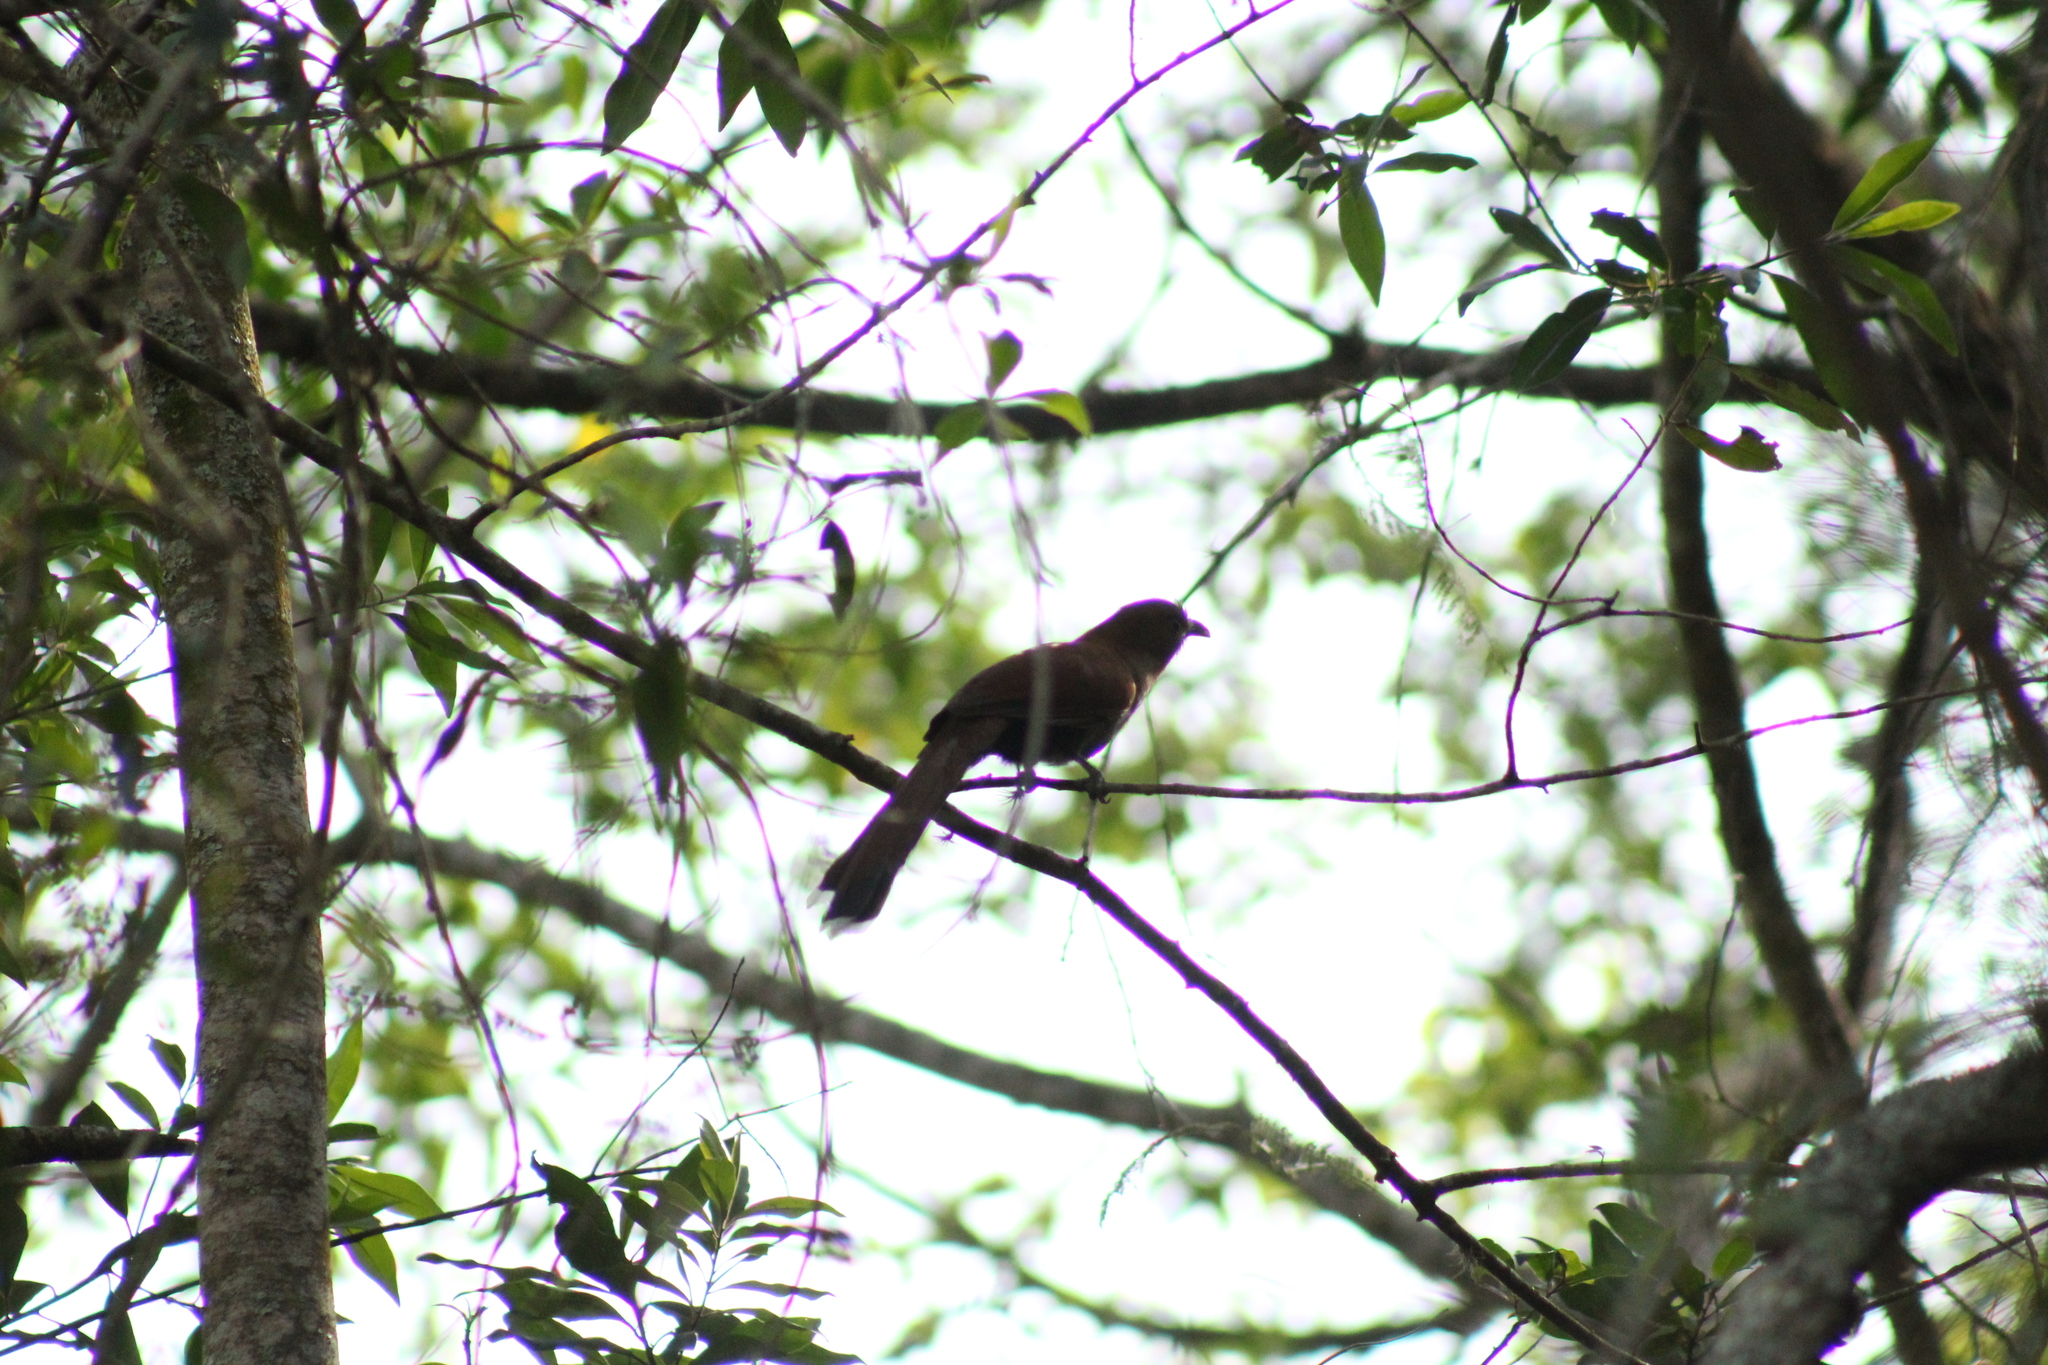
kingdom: Animalia
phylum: Chordata
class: Aves
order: Cuculiformes
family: Cuculidae
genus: Piaya
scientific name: Piaya cayana
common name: Squirrel cuckoo
